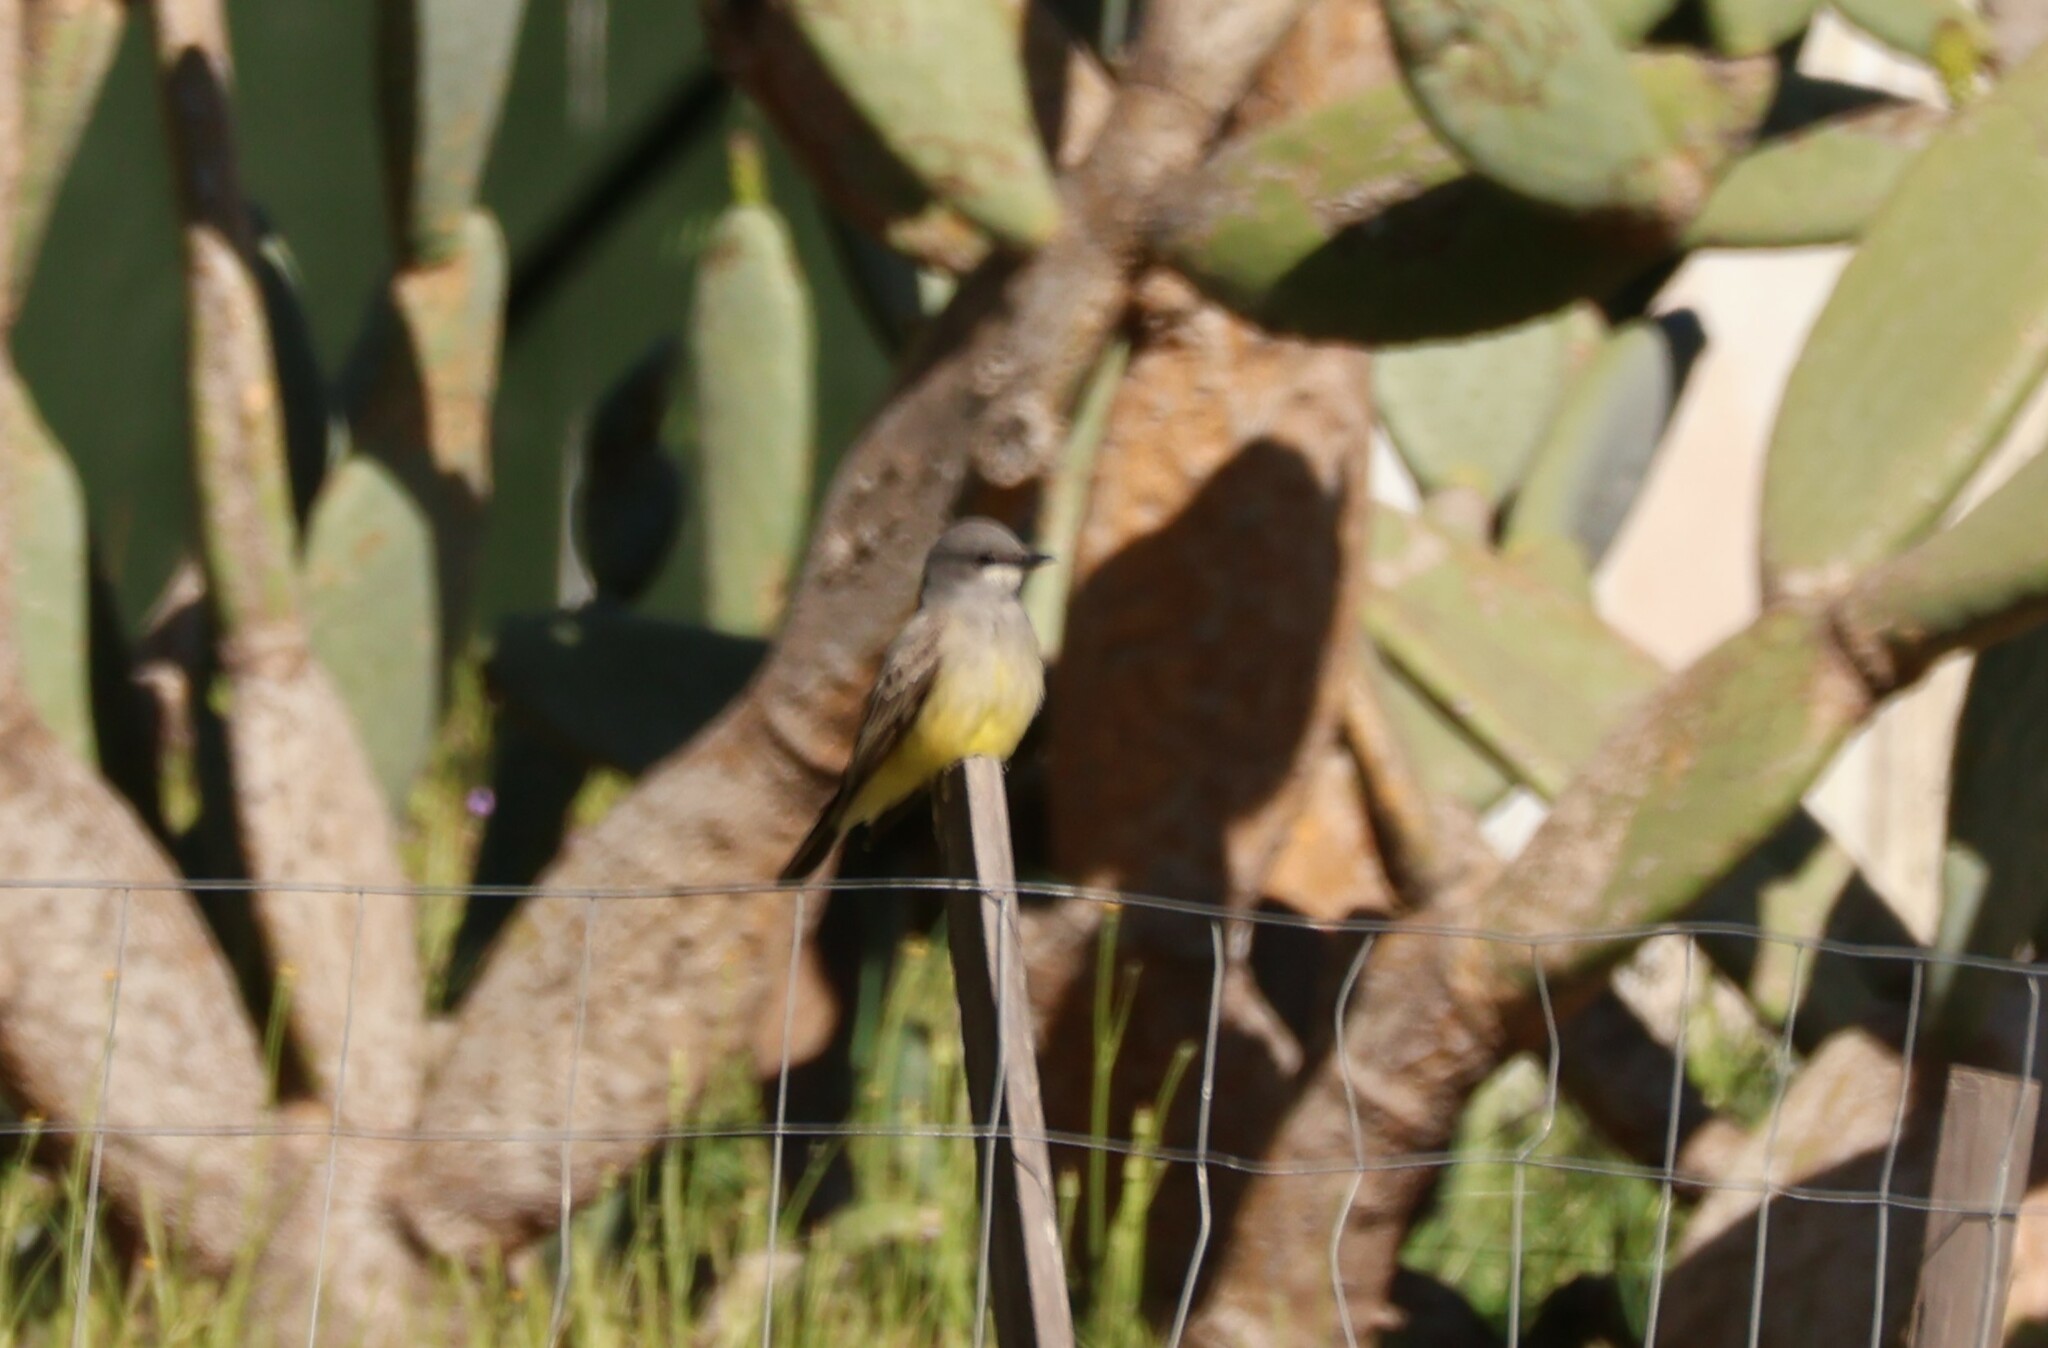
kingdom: Animalia
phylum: Chordata
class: Aves
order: Passeriformes
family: Tyrannidae
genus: Tyrannus
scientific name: Tyrannus vociferans
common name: Cassin's kingbird
